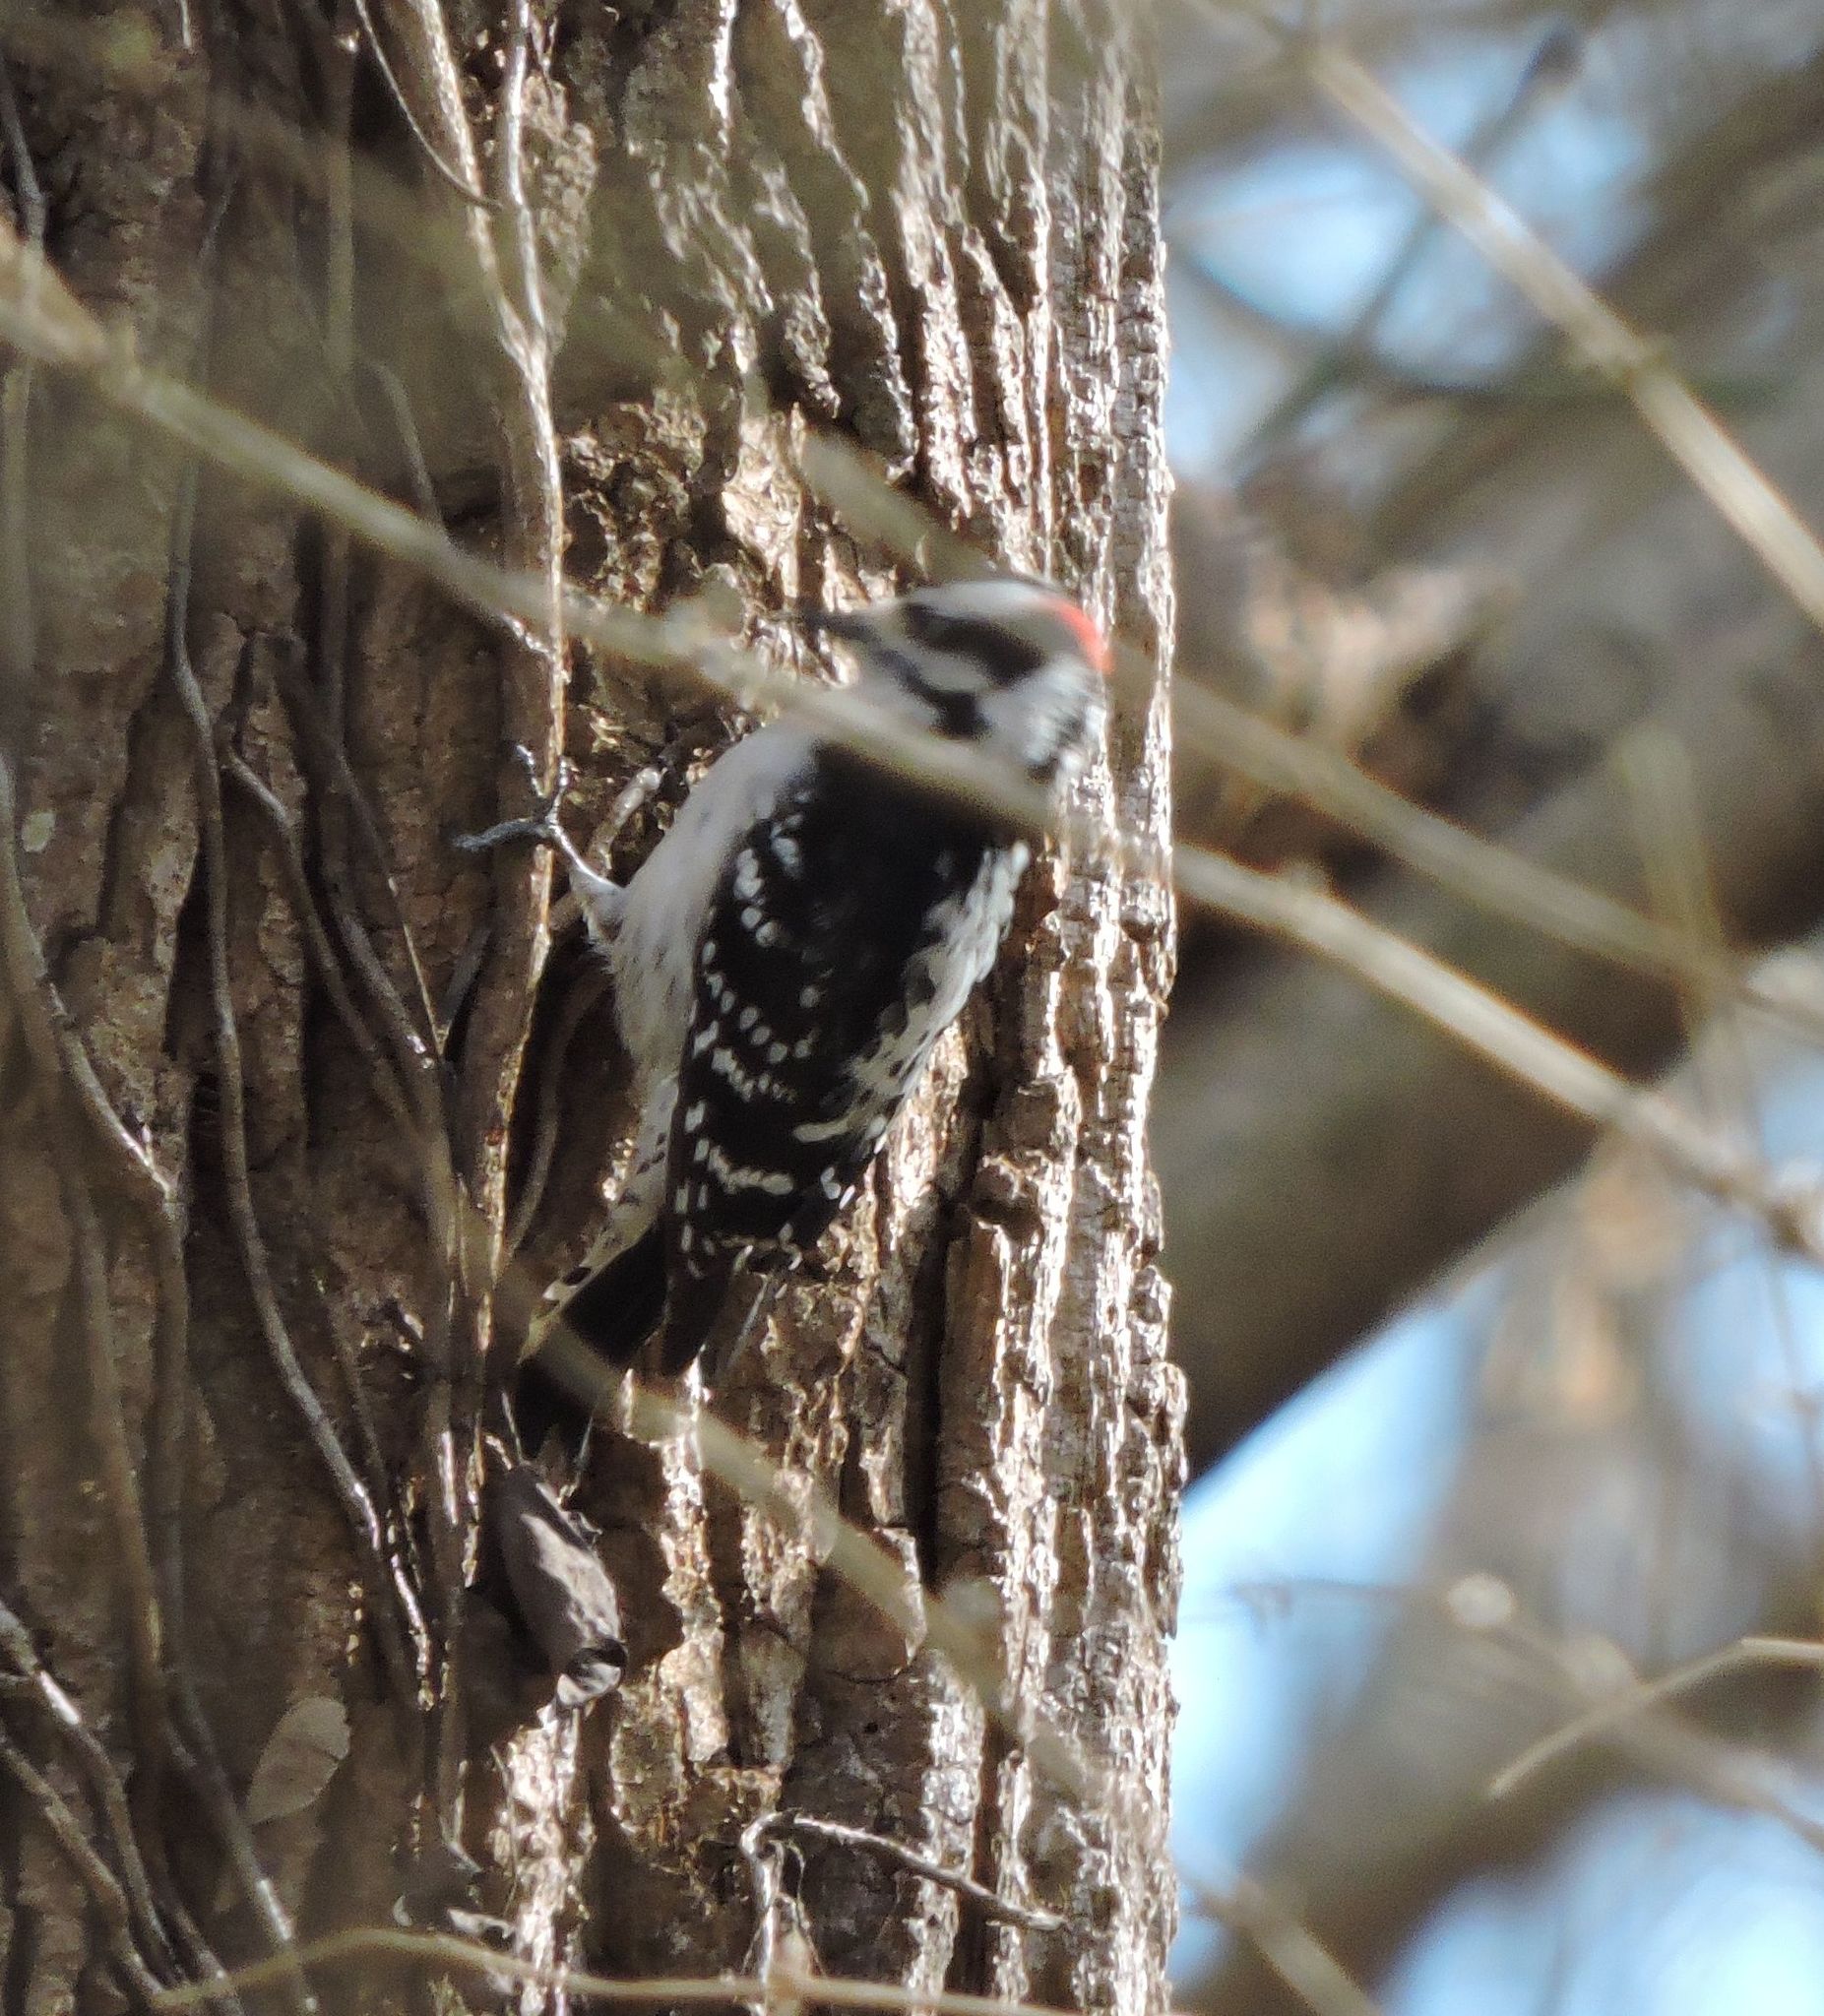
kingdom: Animalia
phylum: Chordata
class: Aves
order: Piciformes
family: Picidae
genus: Dryobates
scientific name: Dryobates pubescens
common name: Downy woodpecker
